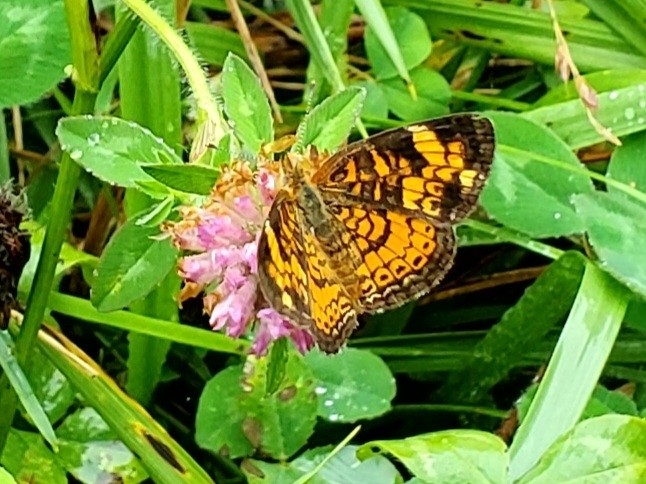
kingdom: Animalia
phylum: Arthropoda
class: Insecta
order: Lepidoptera
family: Nymphalidae
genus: Phyciodes
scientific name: Phyciodes tharos
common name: Pearl crescent
